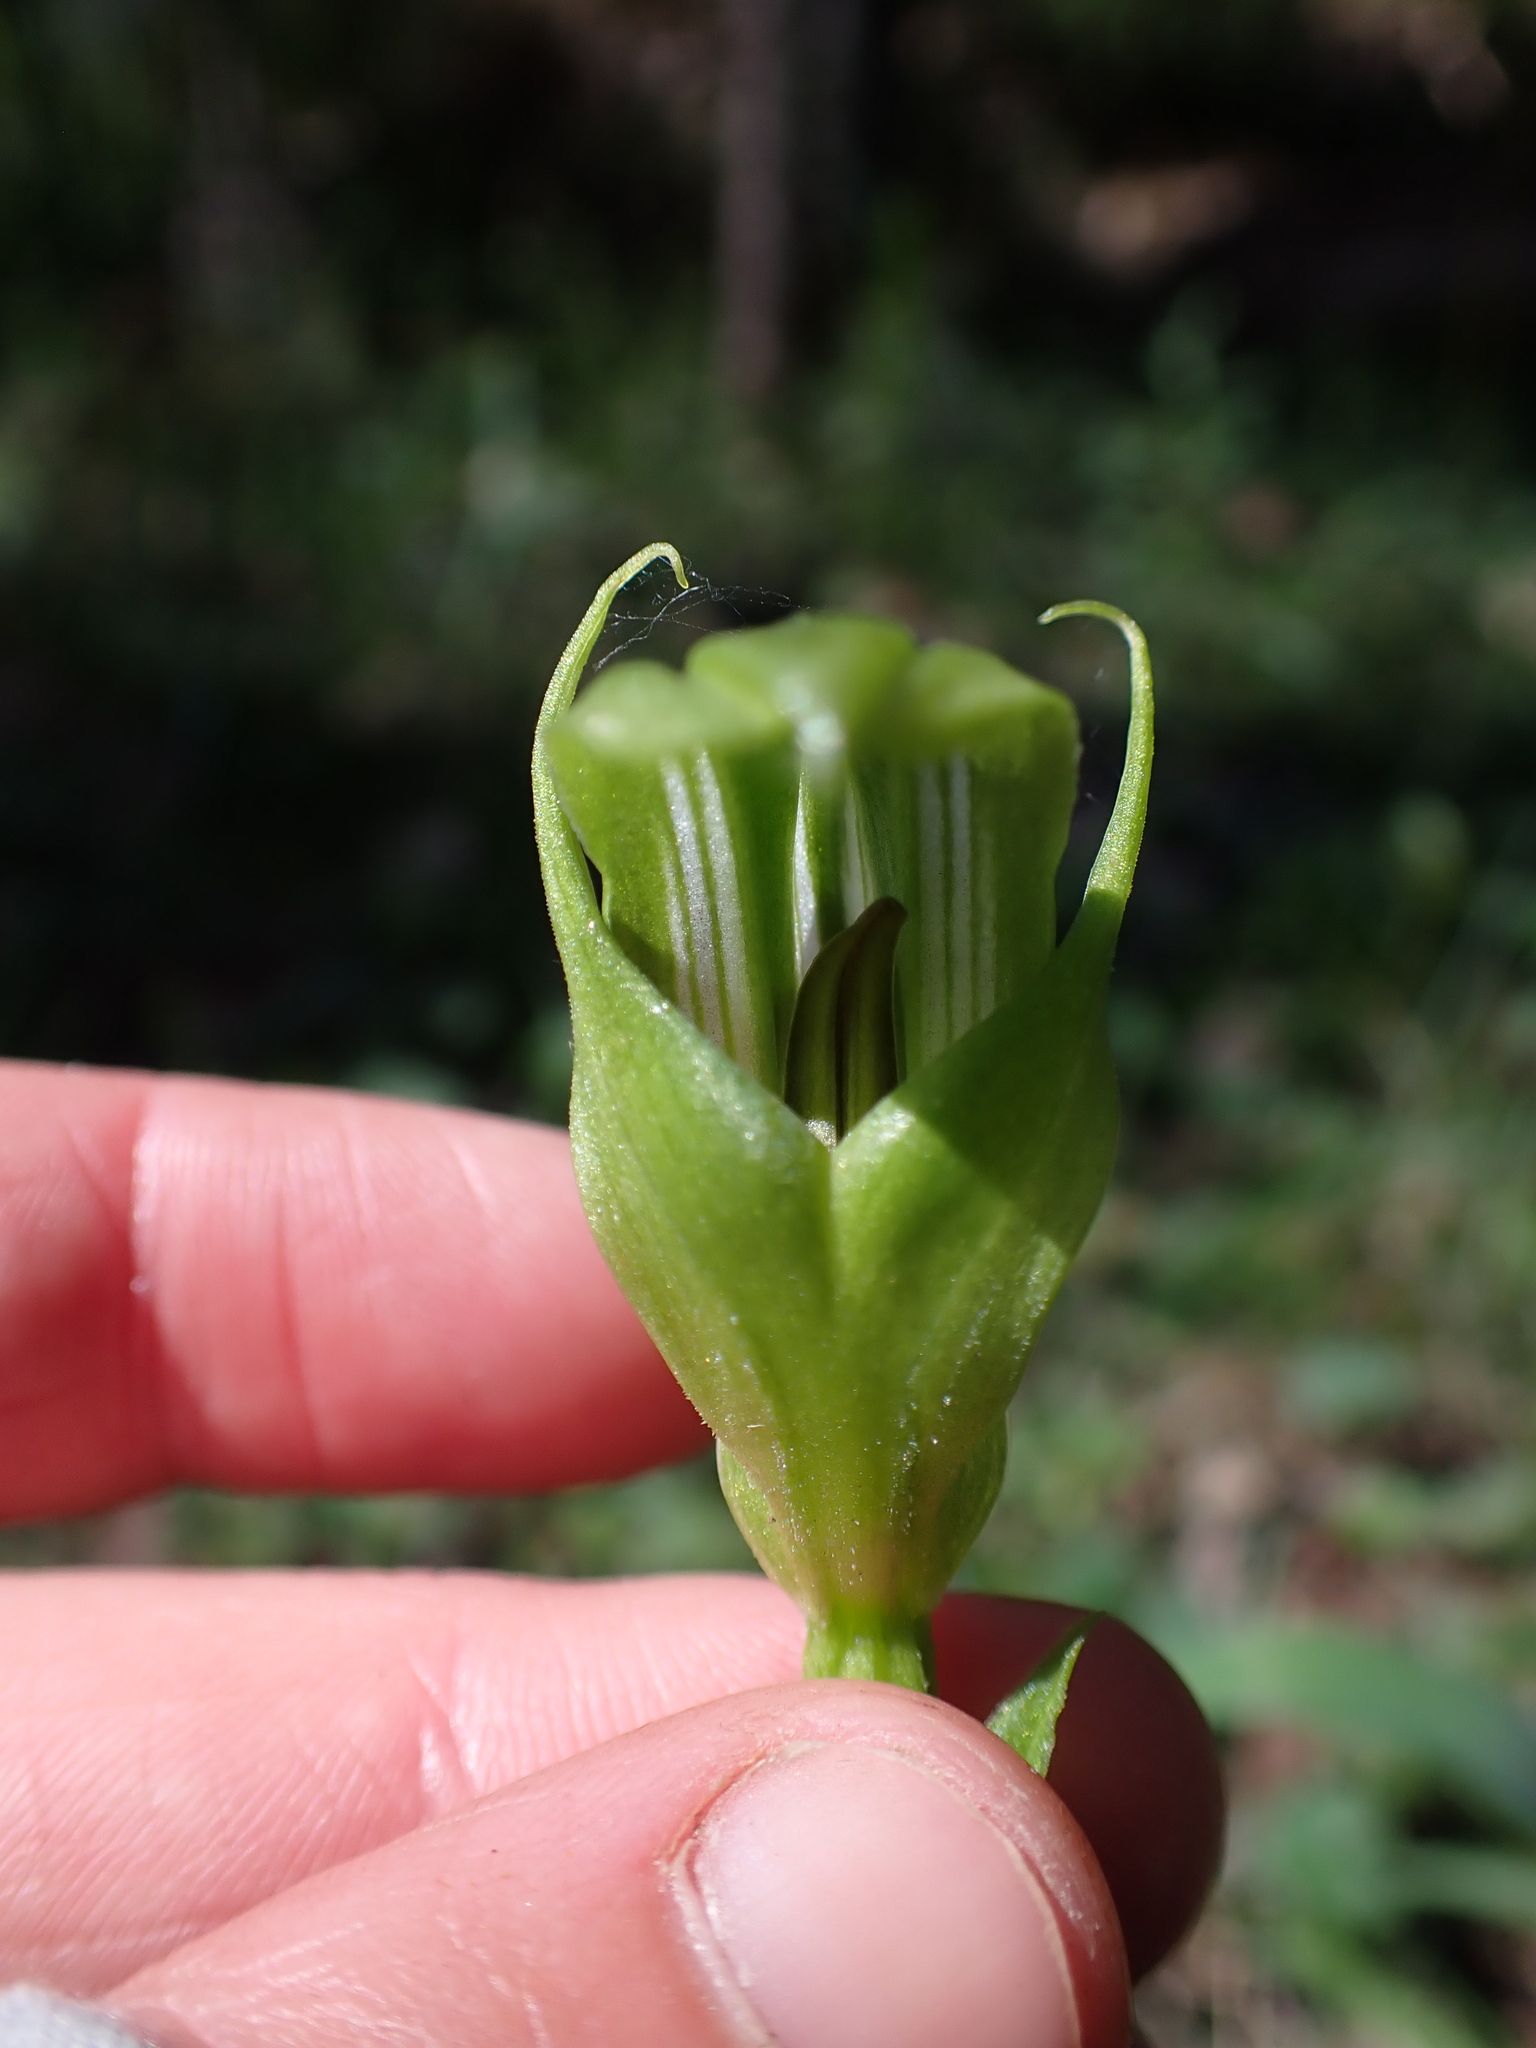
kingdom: Plantae
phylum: Tracheophyta
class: Liliopsida
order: Asparagales
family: Orchidaceae
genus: Pterostylis
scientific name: Pterostylis monticola
